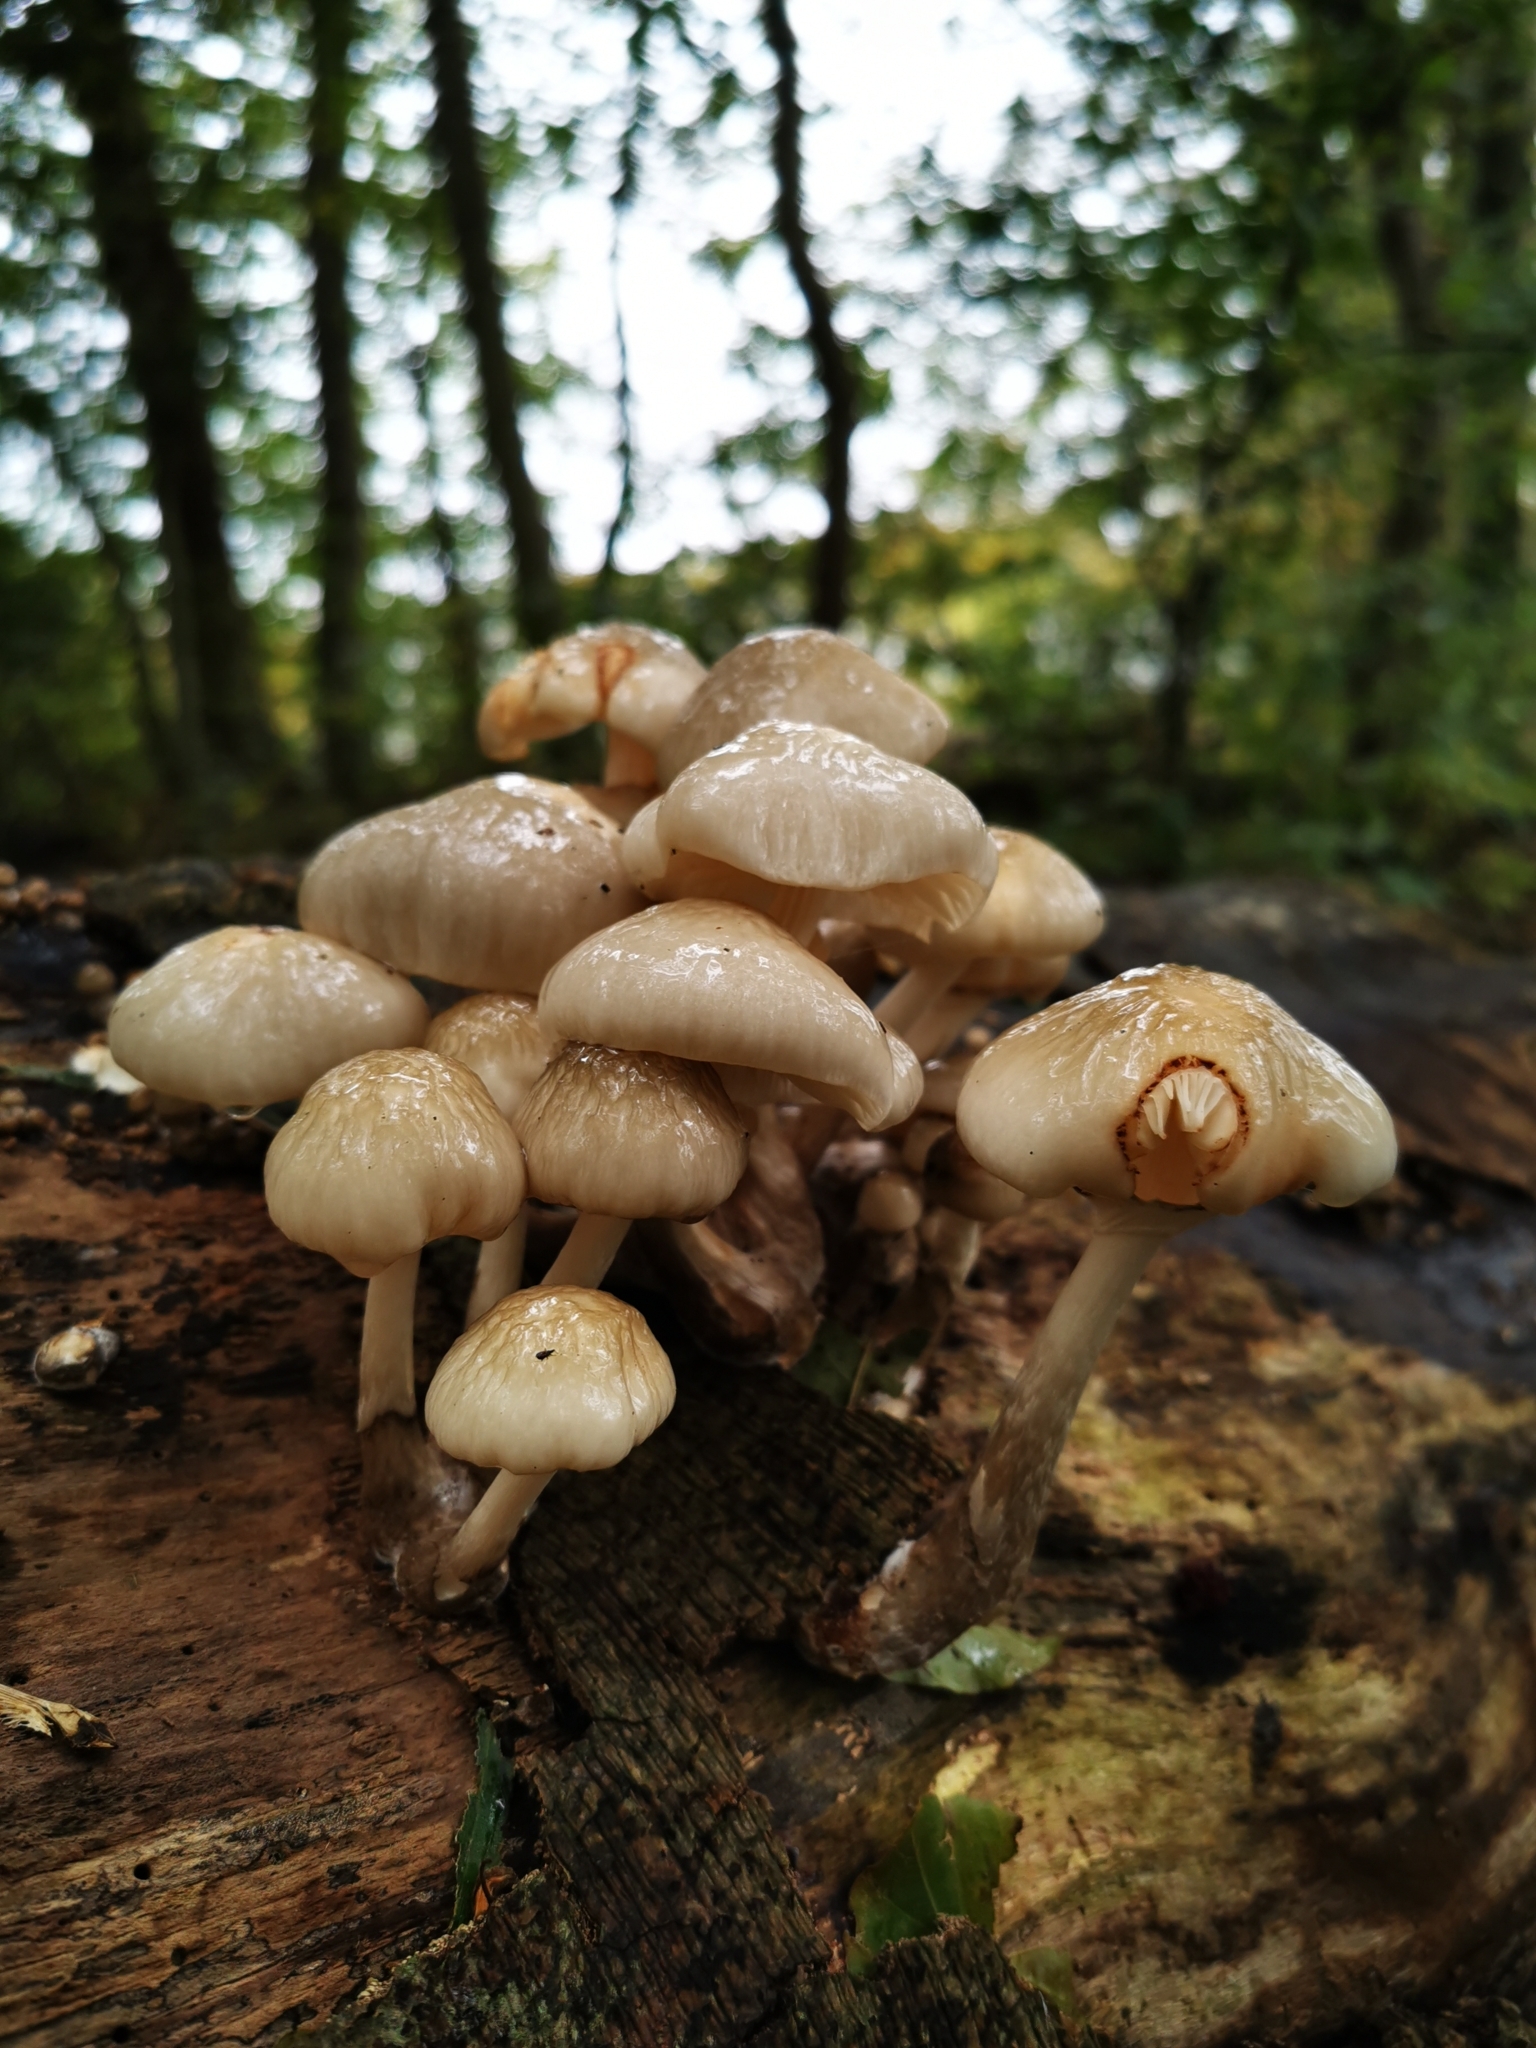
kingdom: Fungi
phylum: Basidiomycota
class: Agaricomycetes
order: Agaricales
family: Physalacriaceae
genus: Mucidula
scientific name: Mucidula mucida
